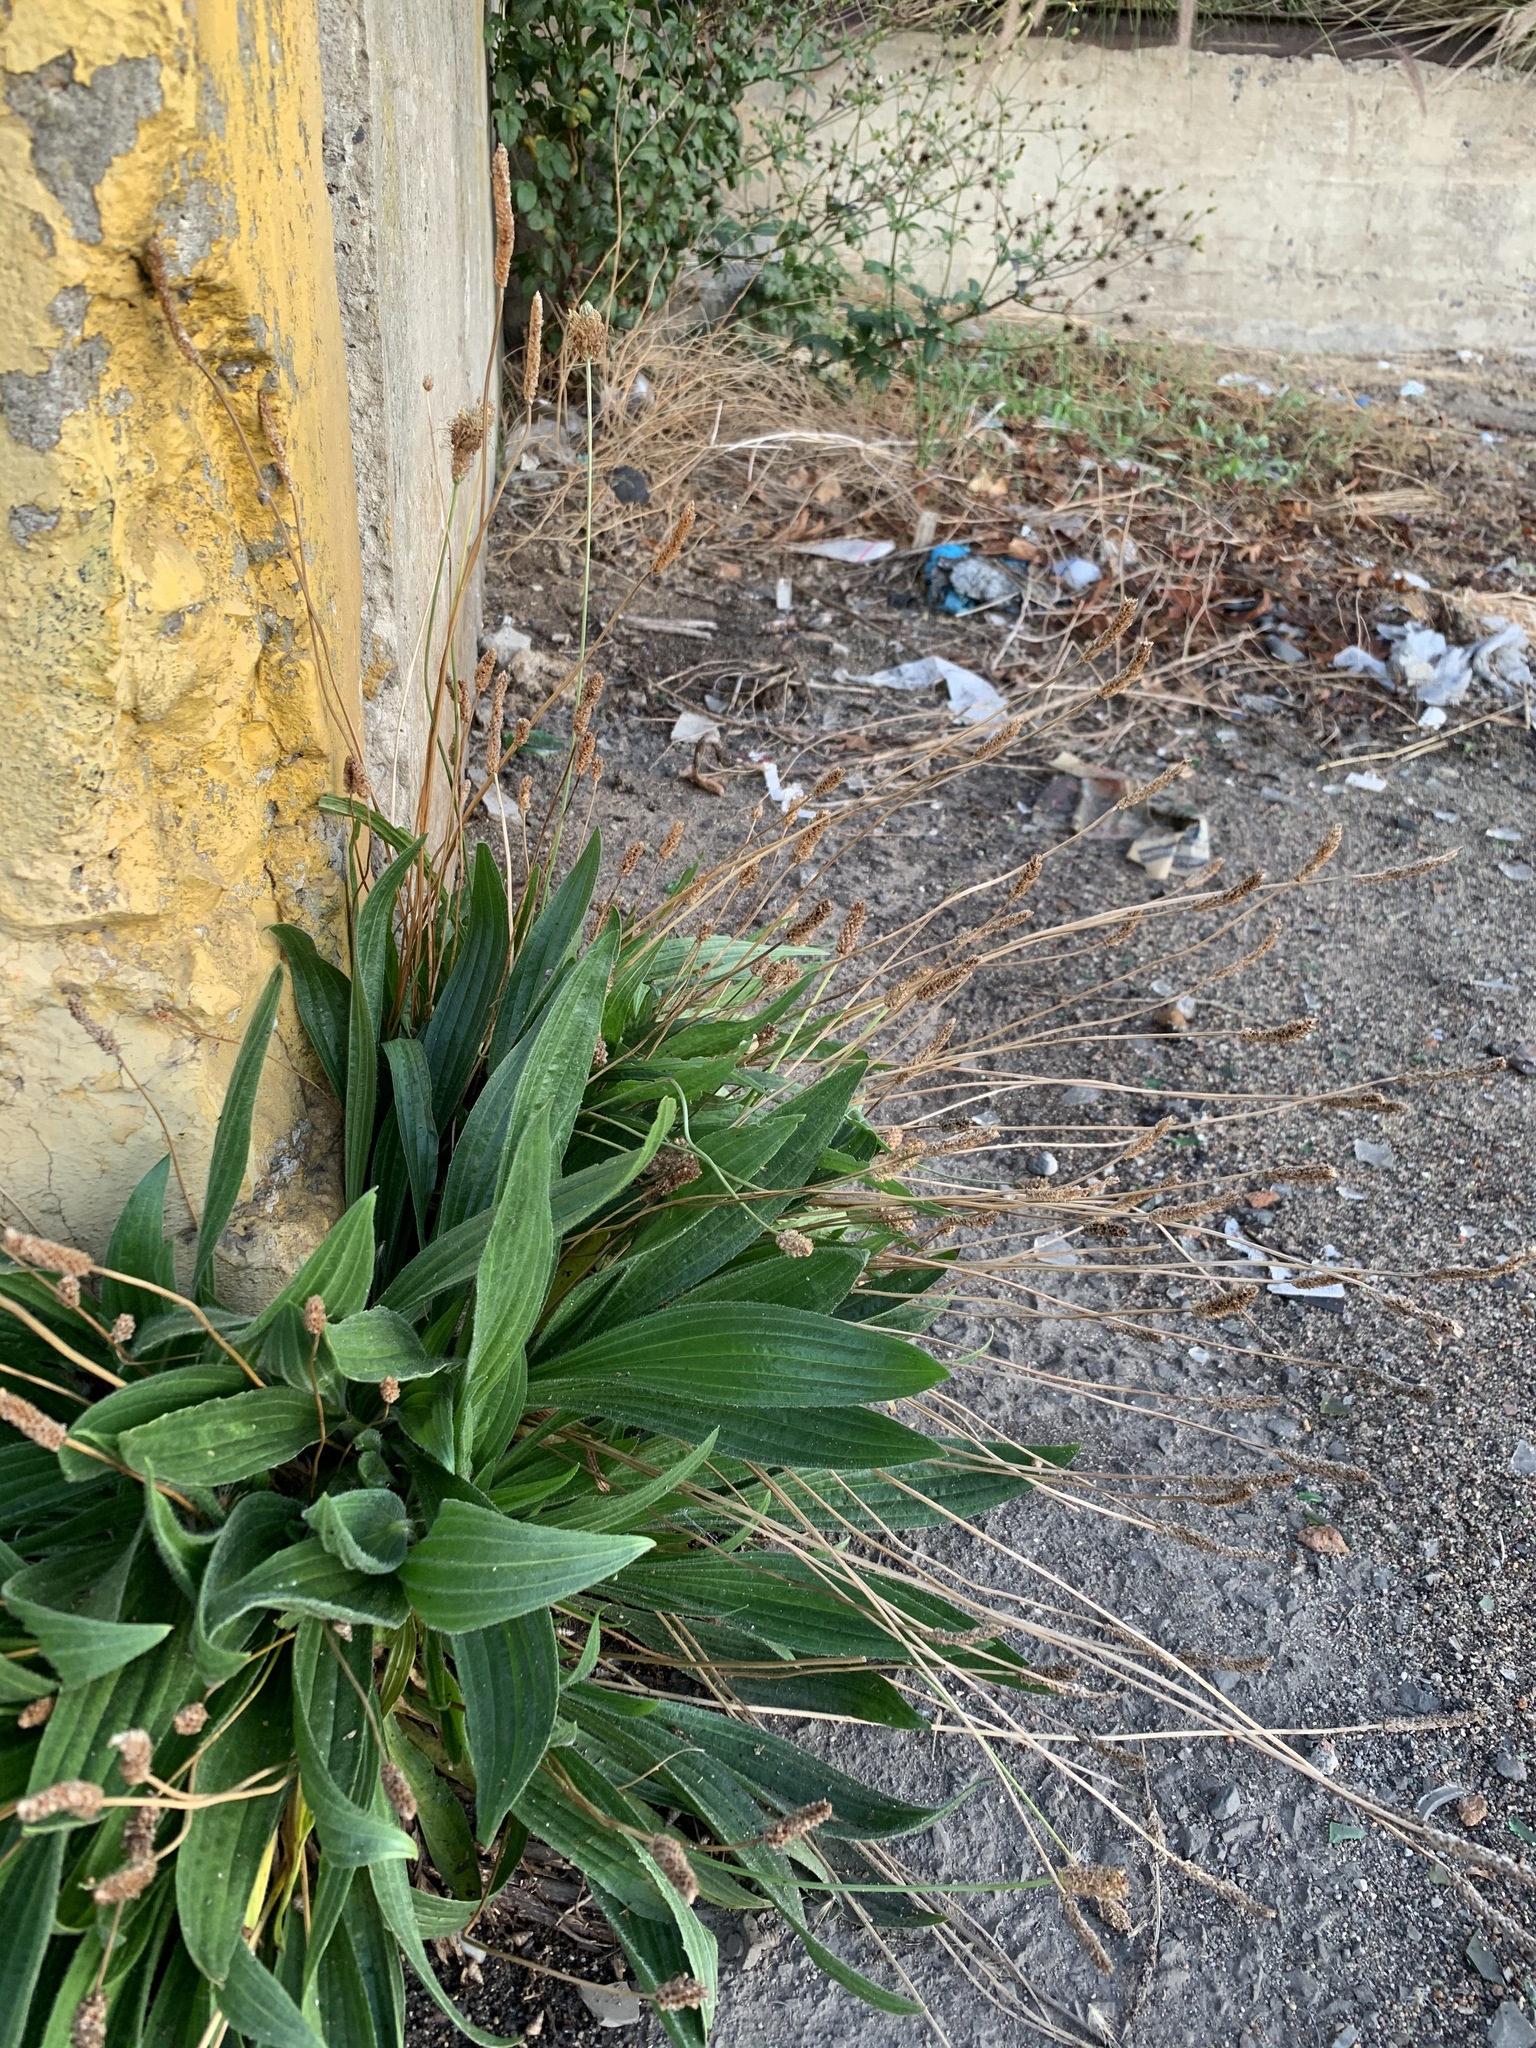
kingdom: Plantae
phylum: Tracheophyta
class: Magnoliopsida
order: Lamiales
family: Plantaginaceae
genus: Plantago
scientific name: Plantago lanceolata
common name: Ribwort plantain
